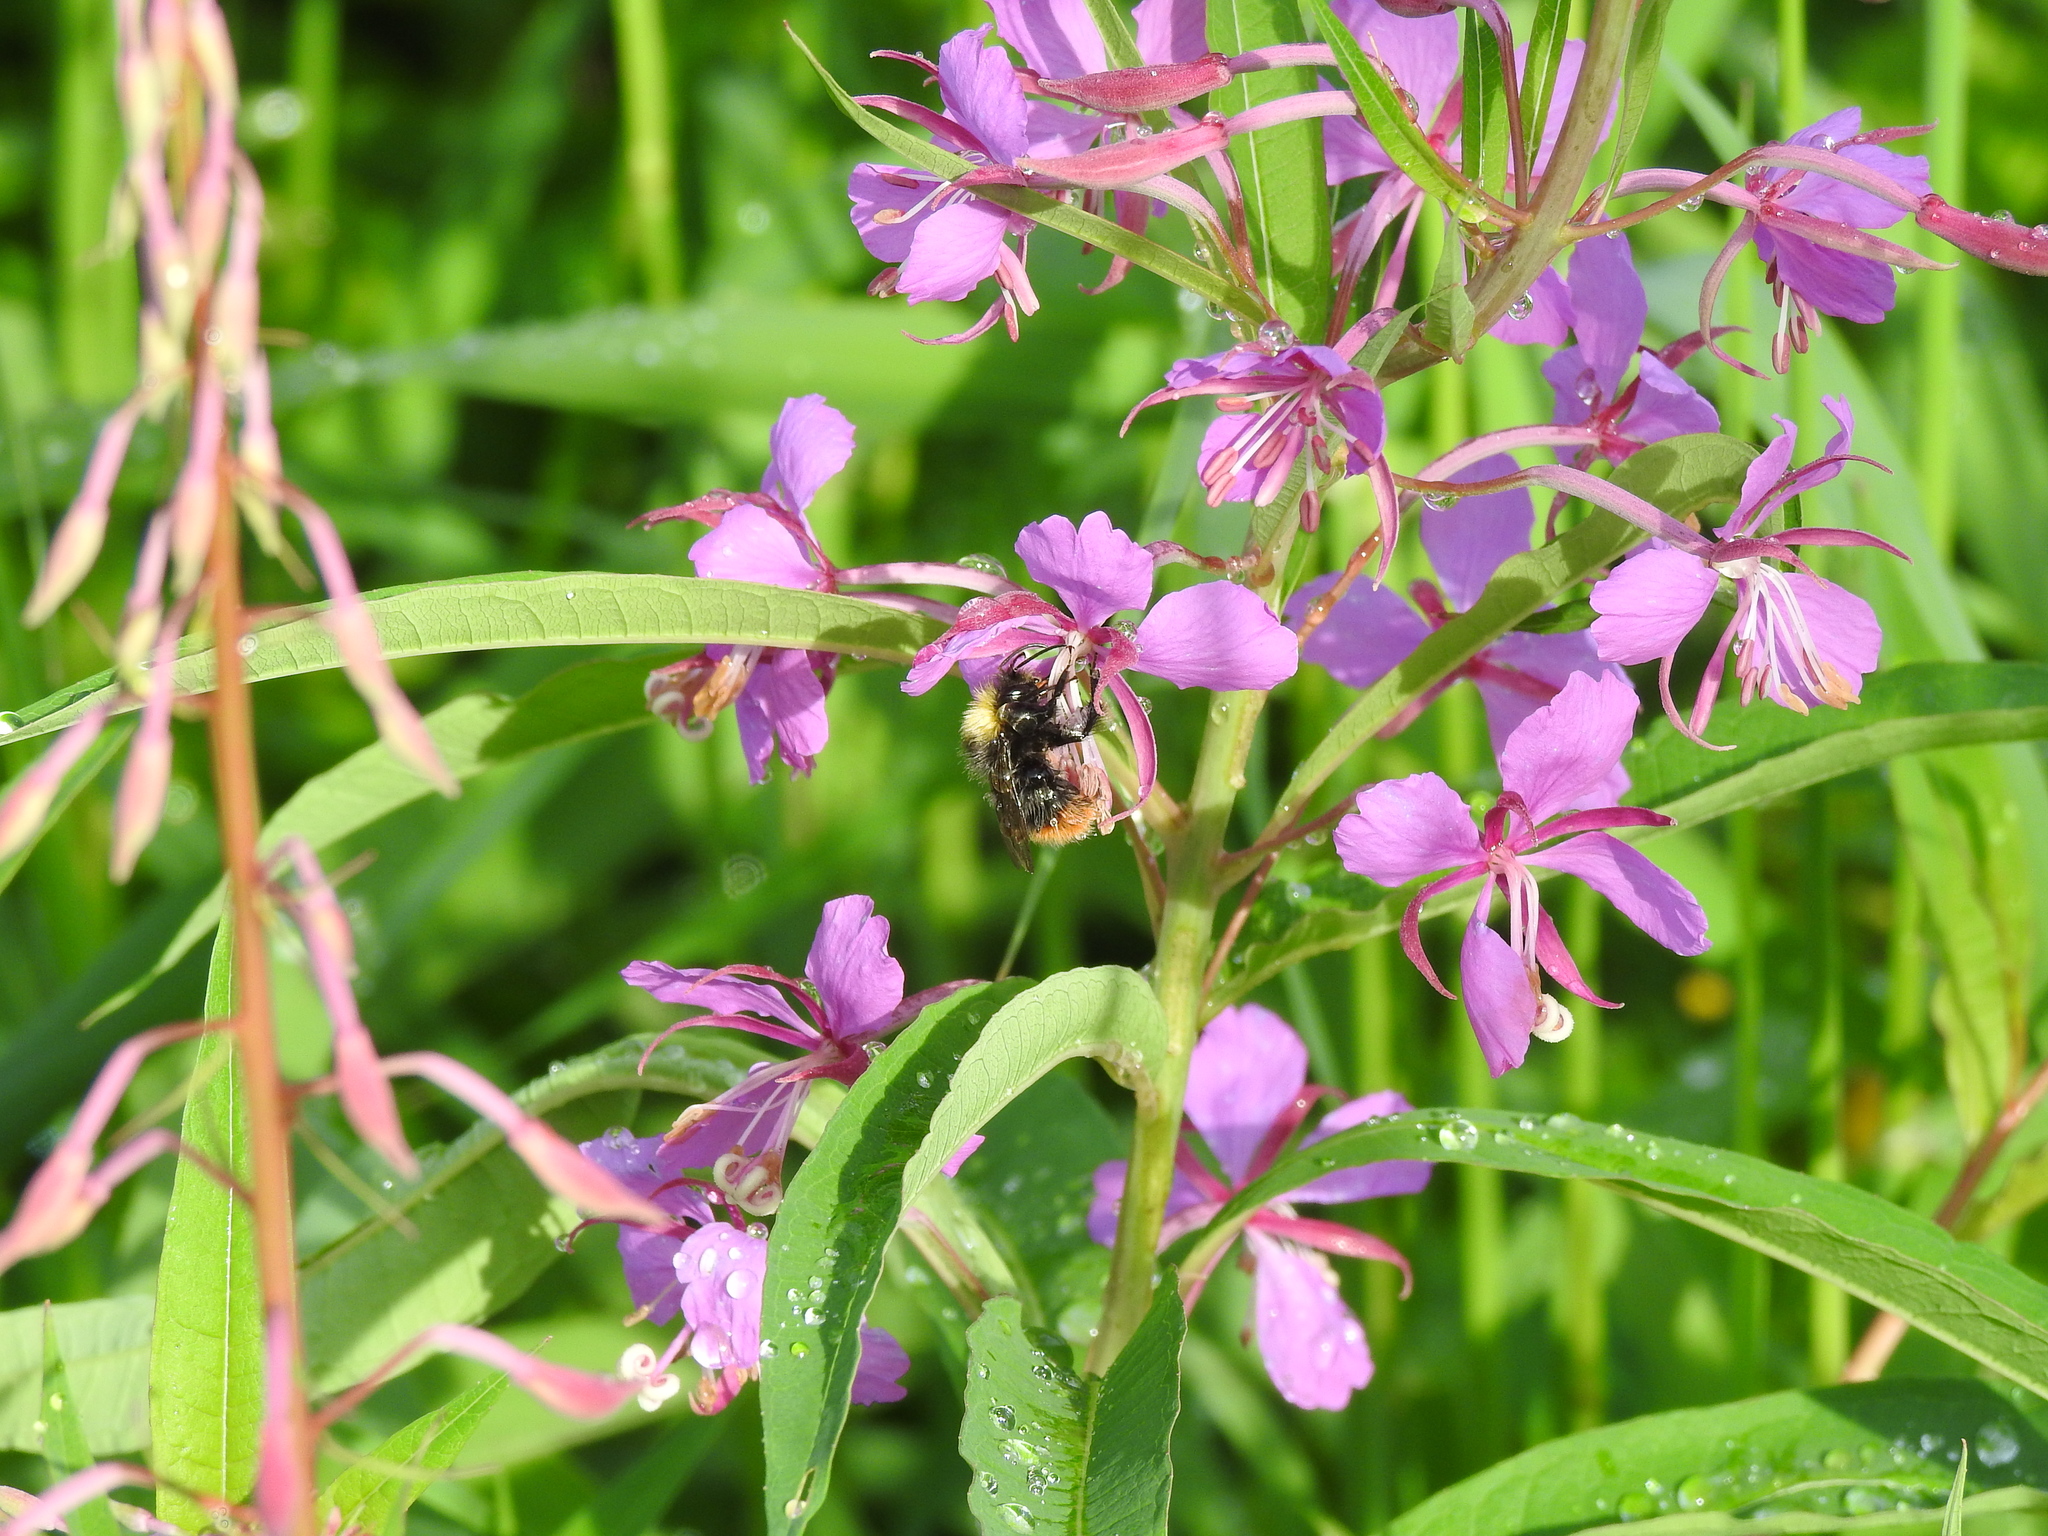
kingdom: Plantae
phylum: Tracheophyta
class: Magnoliopsida
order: Myrtales
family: Onagraceae
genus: Chamaenerion
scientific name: Chamaenerion angustifolium
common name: Fireweed
